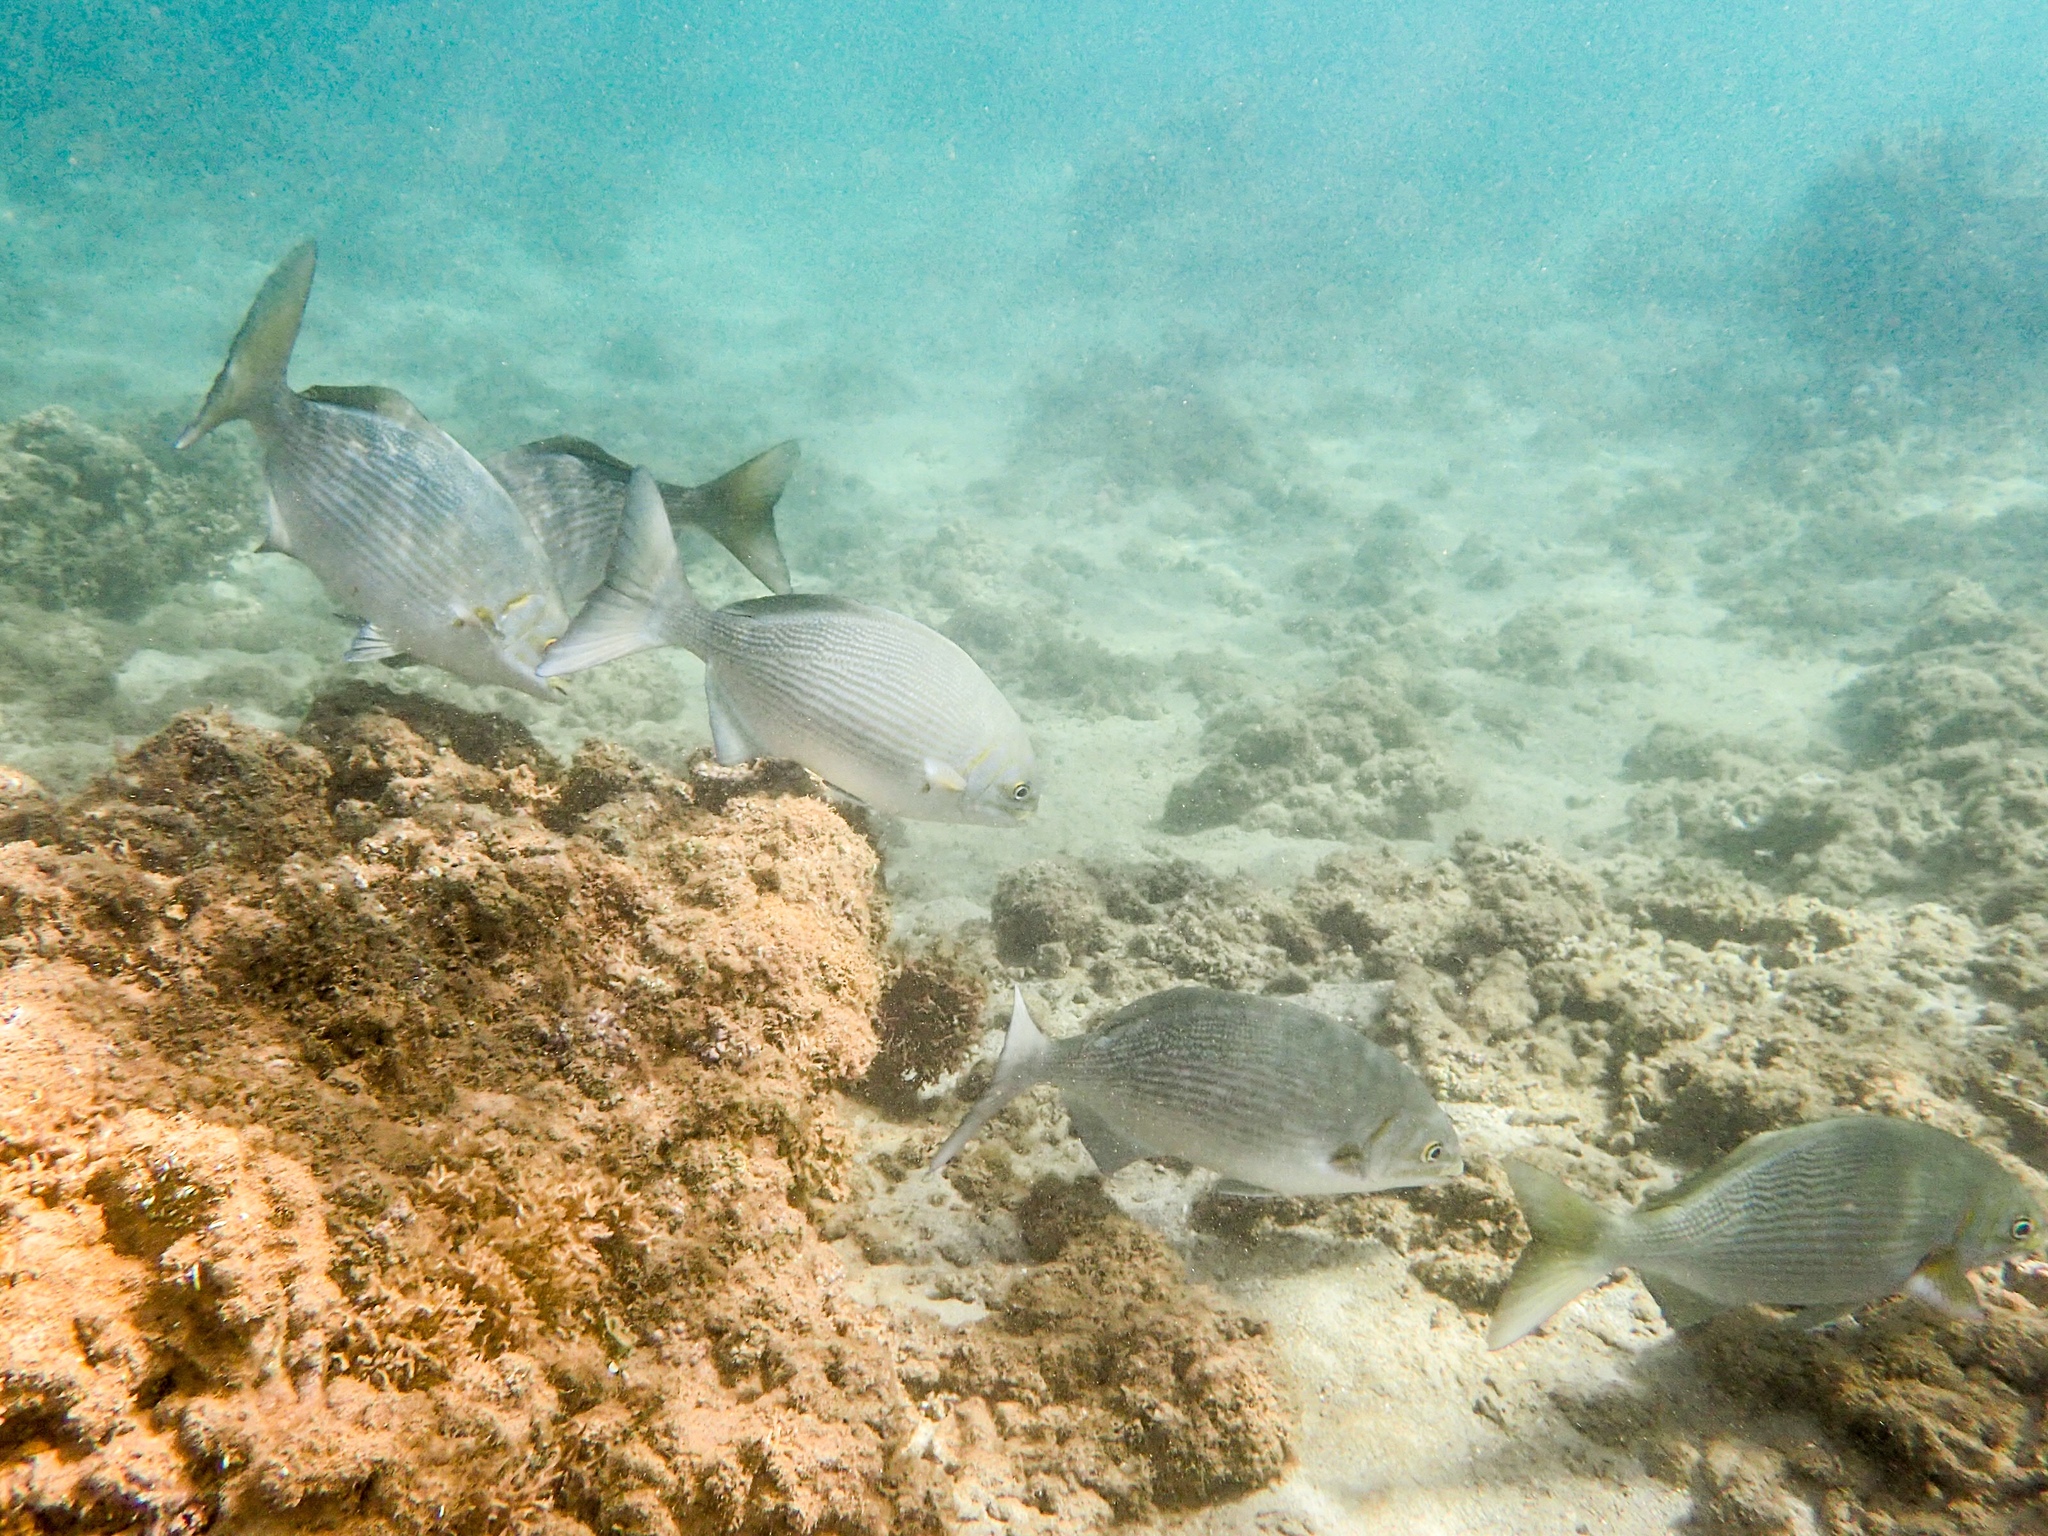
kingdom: Animalia
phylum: Chordata
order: Perciformes
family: Kyphosidae
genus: Kyphosus
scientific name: Kyphosus vaigiensis
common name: Brassy chub
